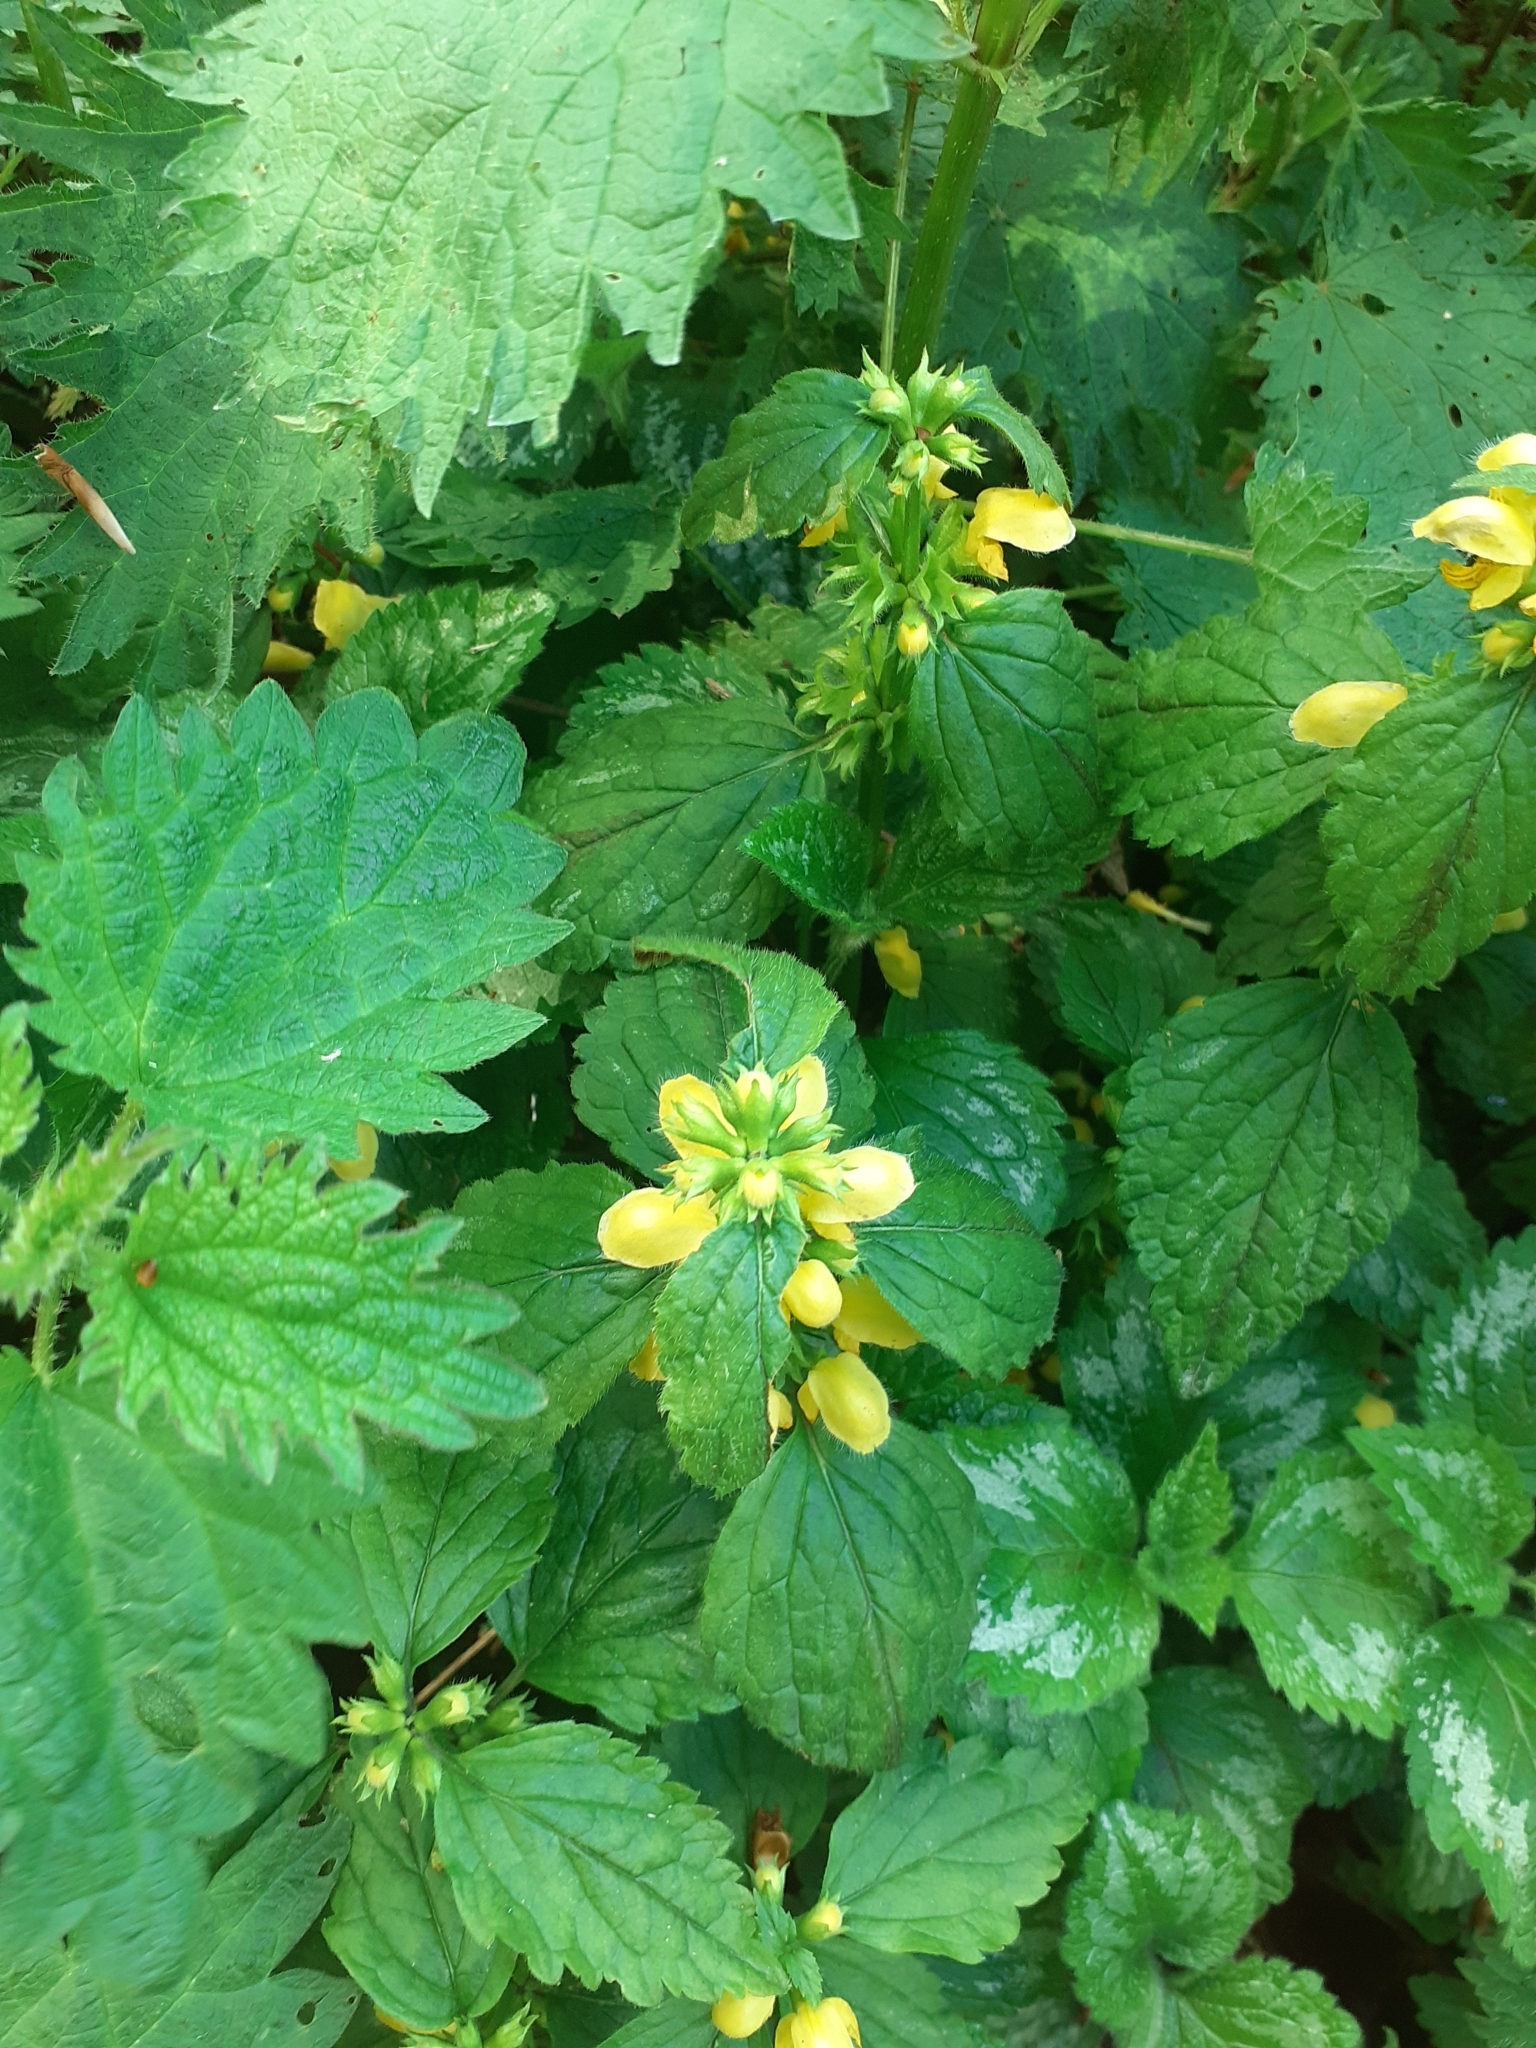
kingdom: Plantae
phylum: Tracheophyta
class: Magnoliopsida
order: Lamiales
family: Lamiaceae
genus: Lamium
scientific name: Lamium galeobdolon
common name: Yellow archangel
